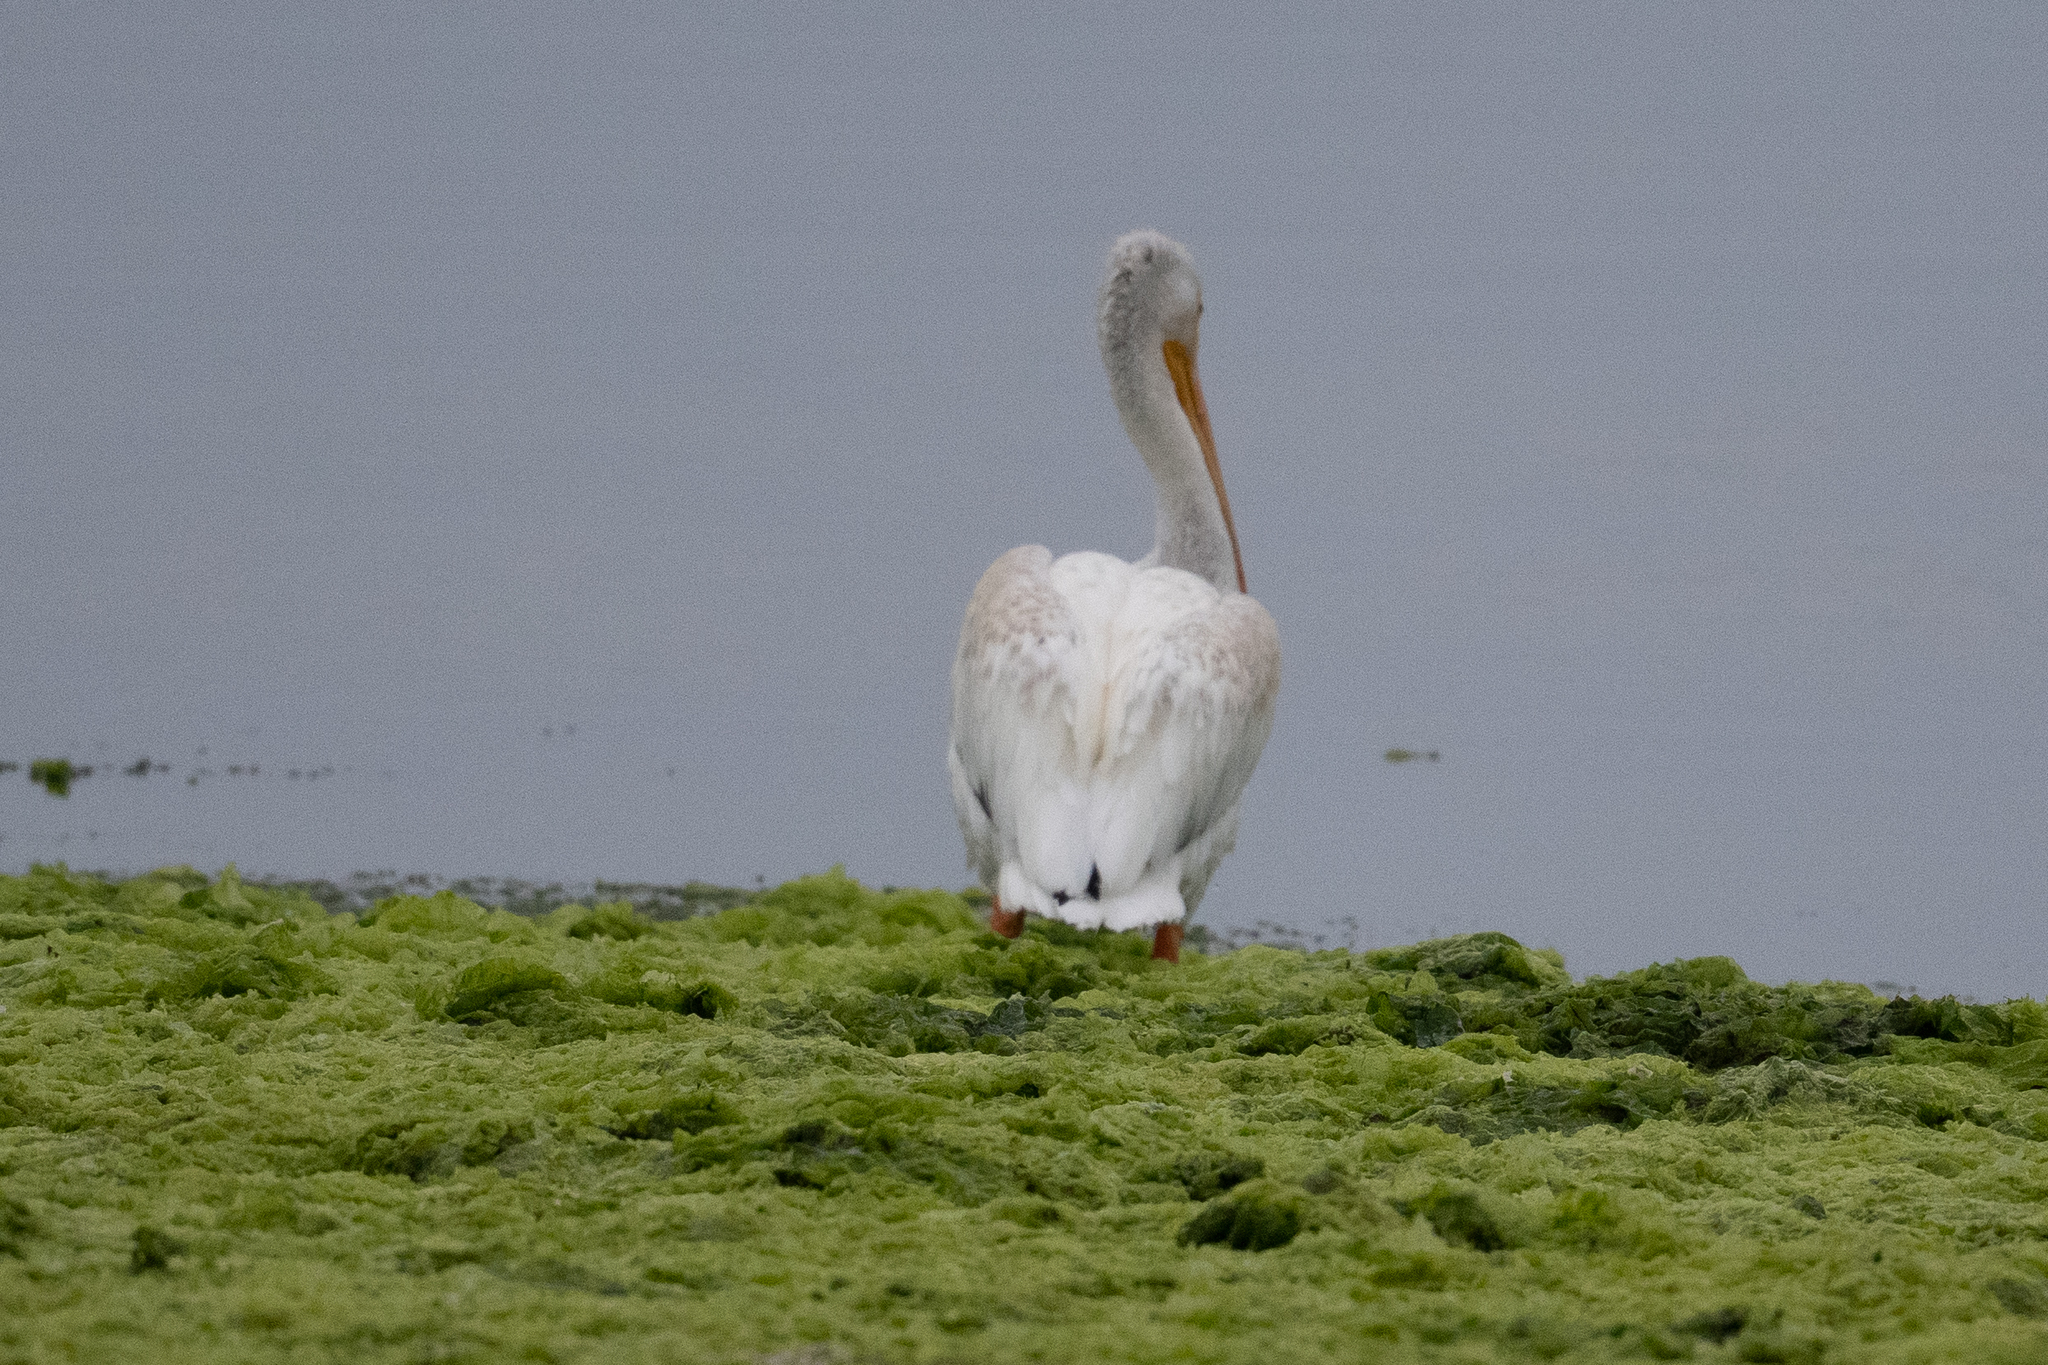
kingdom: Animalia
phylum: Chordata
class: Aves
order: Pelecaniformes
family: Pelecanidae
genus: Pelecanus
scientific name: Pelecanus erythrorhynchos
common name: American white pelican
